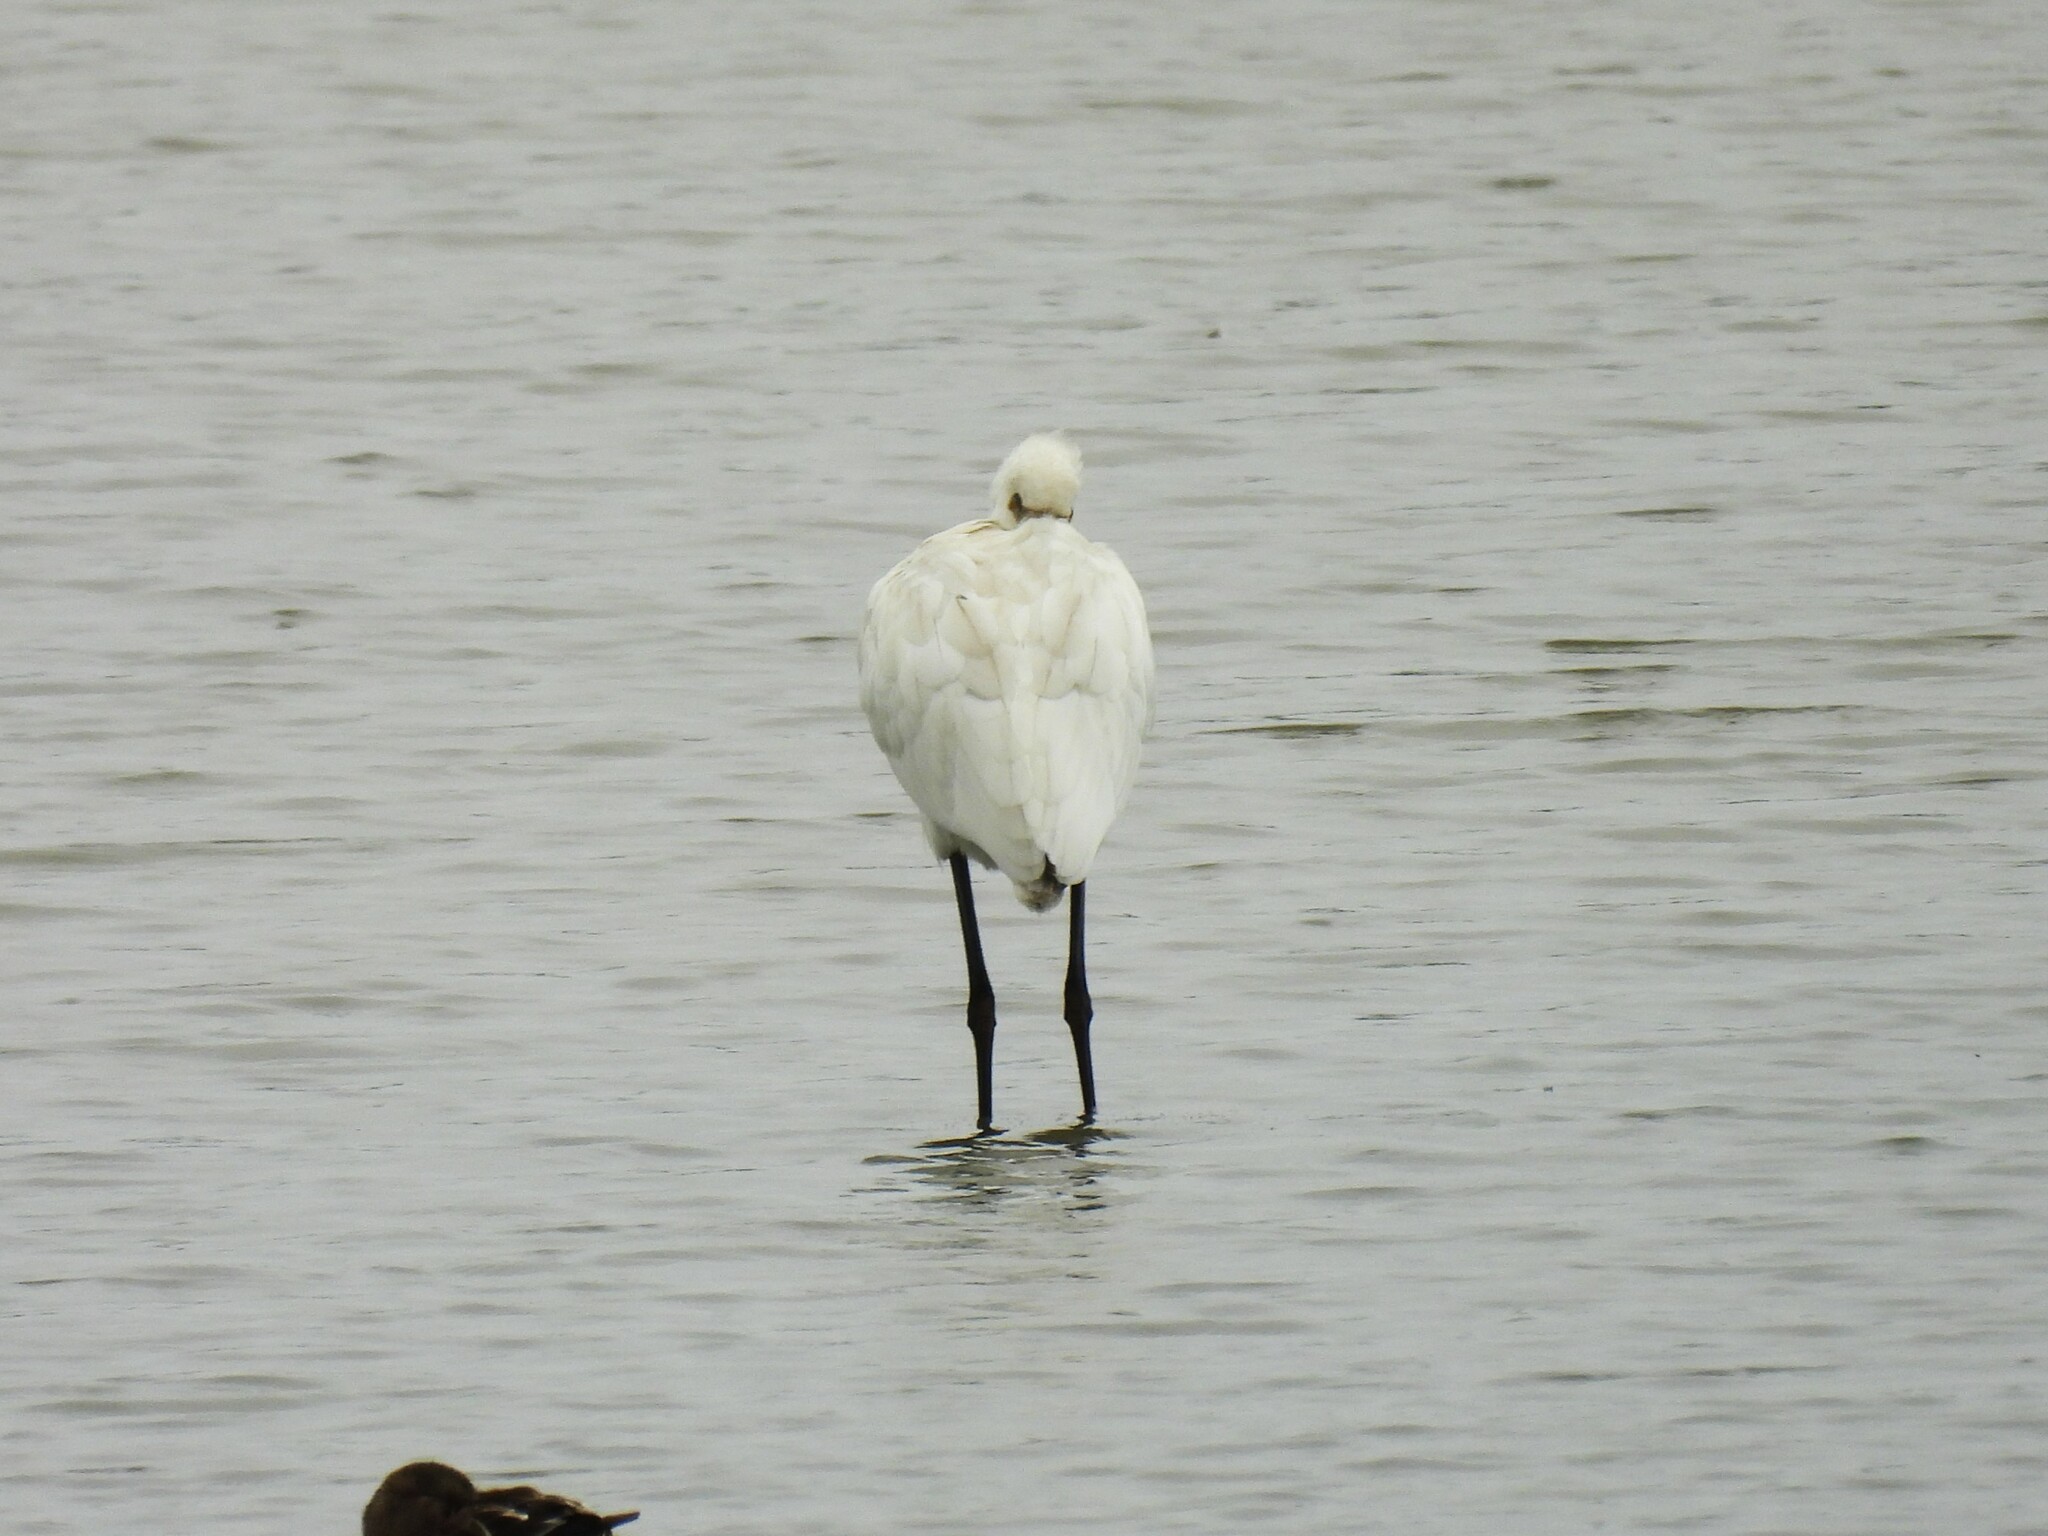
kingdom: Animalia
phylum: Chordata
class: Aves
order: Pelecaniformes
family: Threskiornithidae
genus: Platalea
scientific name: Platalea leucorodia
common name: Eurasian spoonbill
